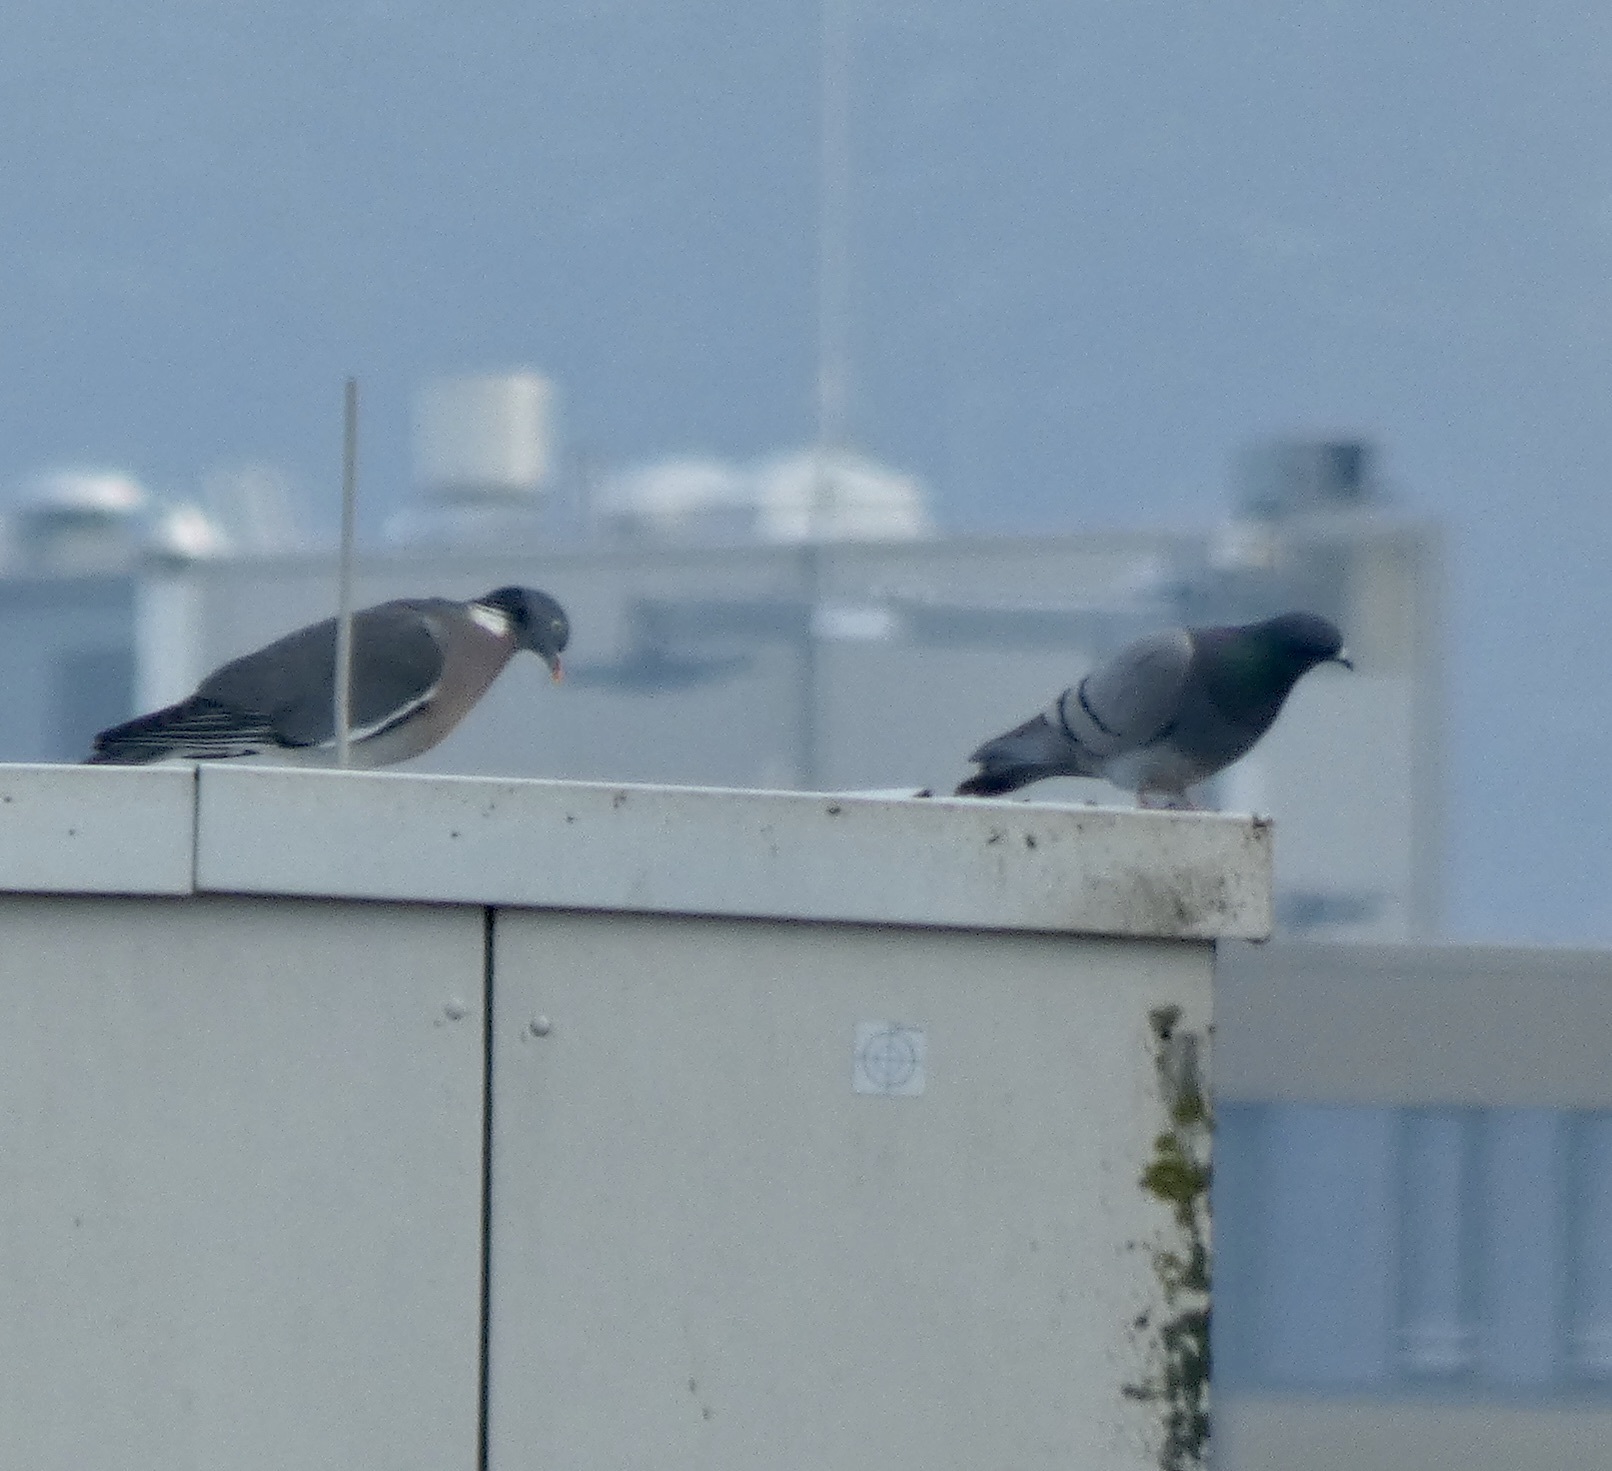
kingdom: Animalia
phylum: Chordata
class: Aves
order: Columbiformes
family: Columbidae
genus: Columba
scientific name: Columba palumbus
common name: Common wood pigeon
